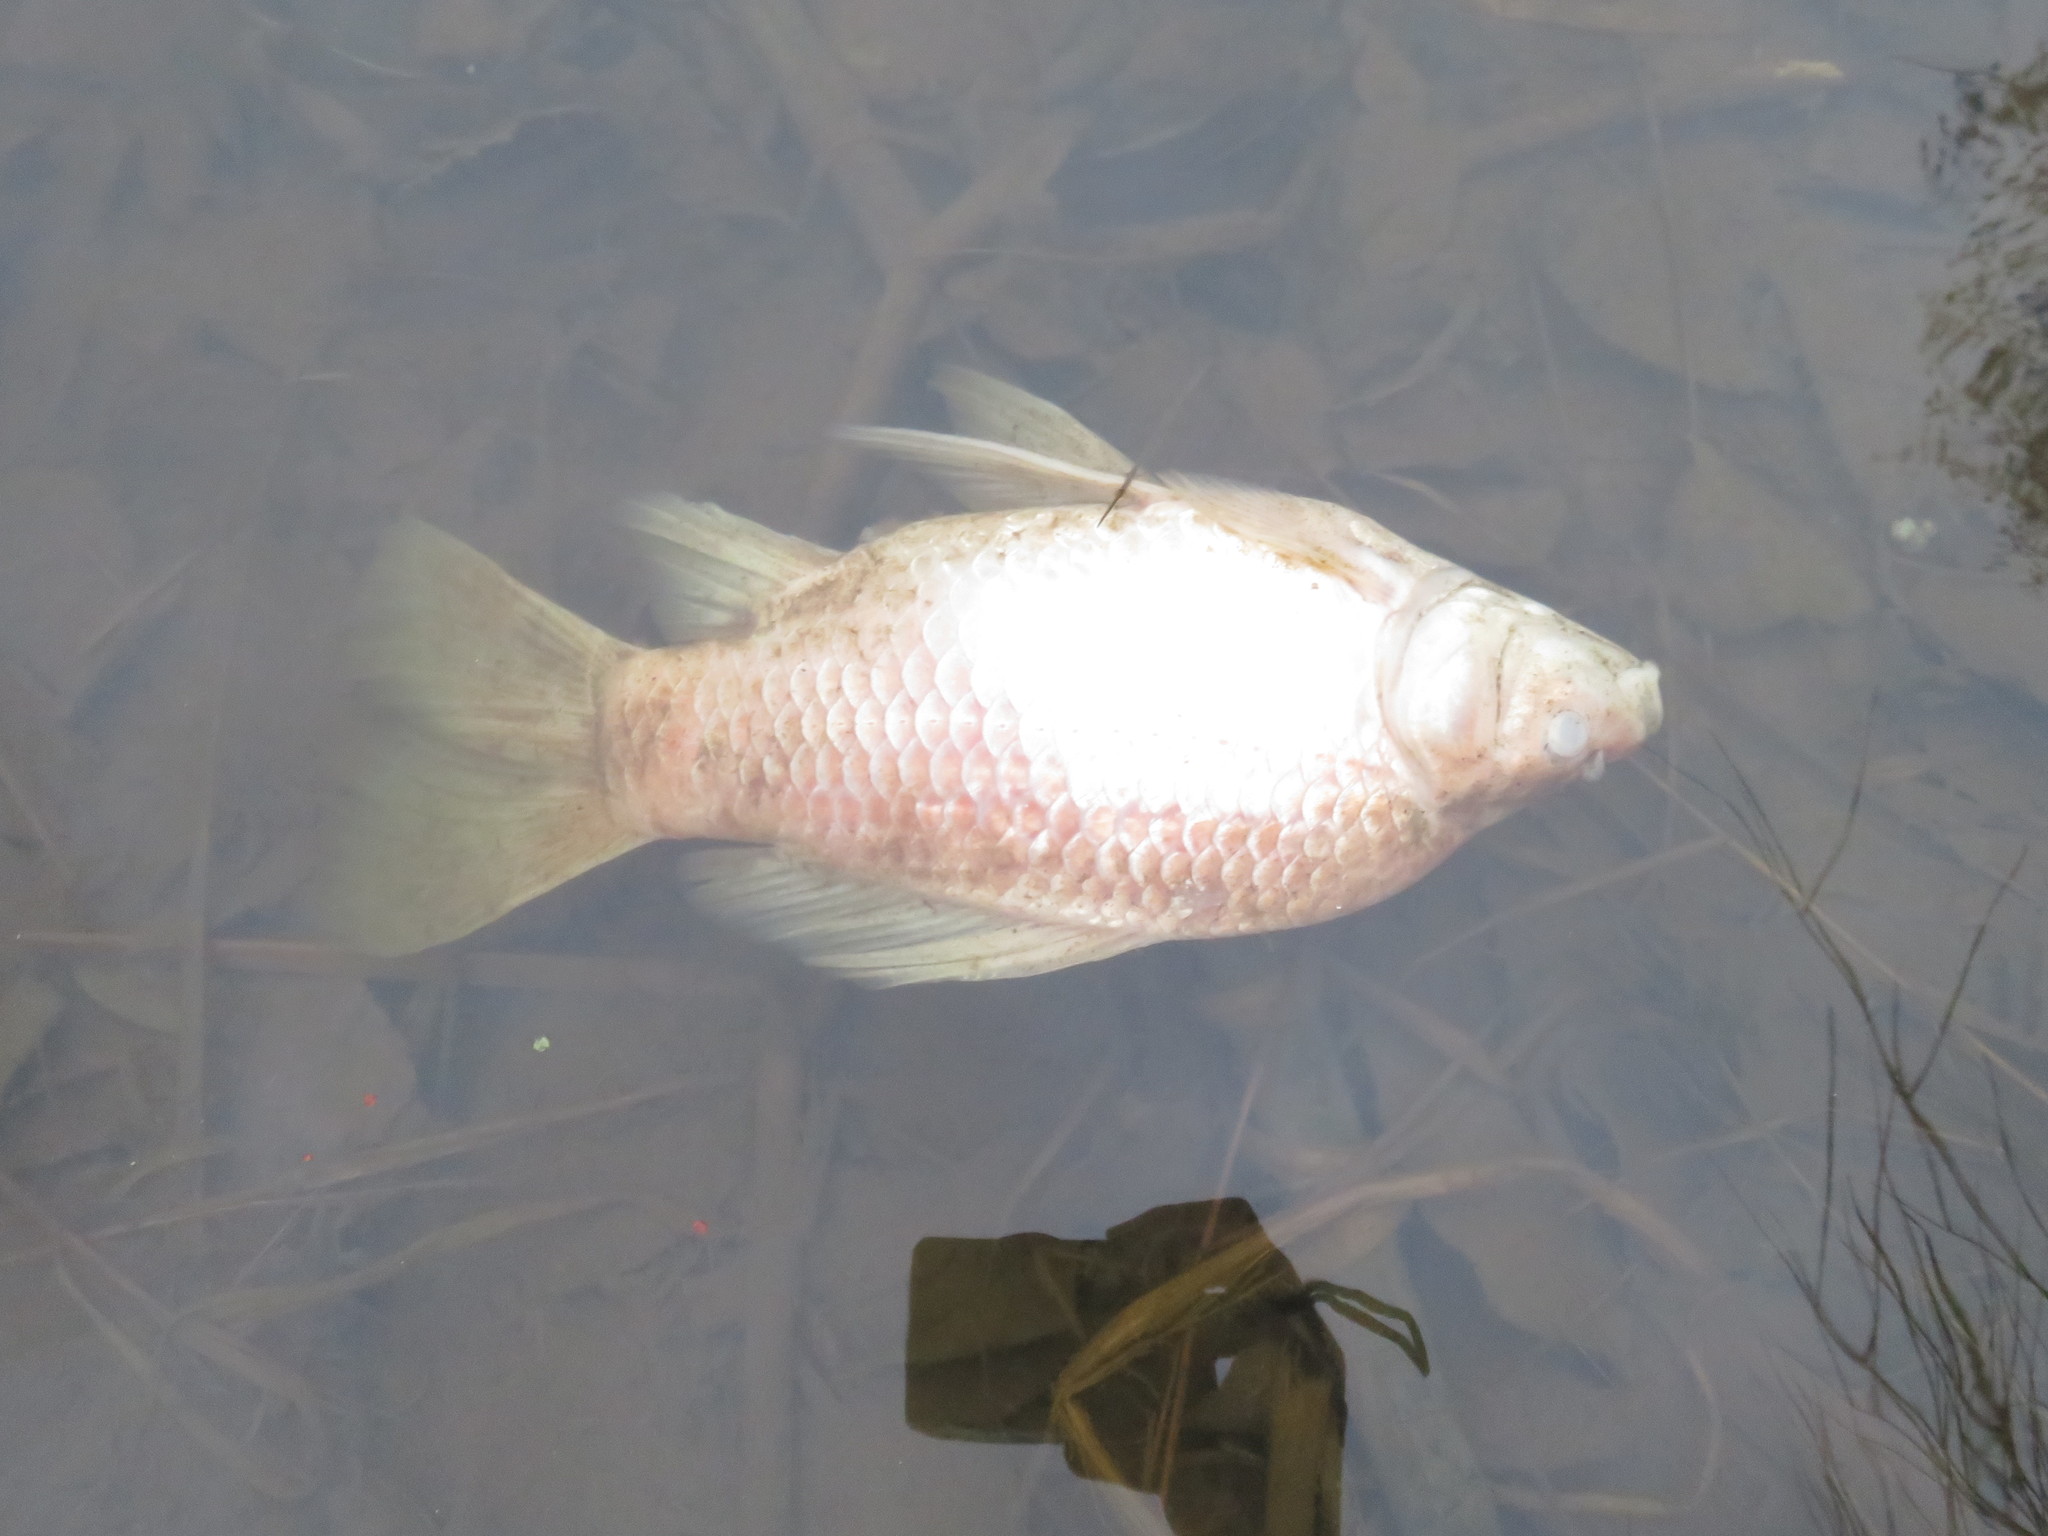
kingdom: Animalia
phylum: Chordata
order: Cypriniformes
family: Cyprinidae
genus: Carassius
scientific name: Carassius auratus
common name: Goldfish
